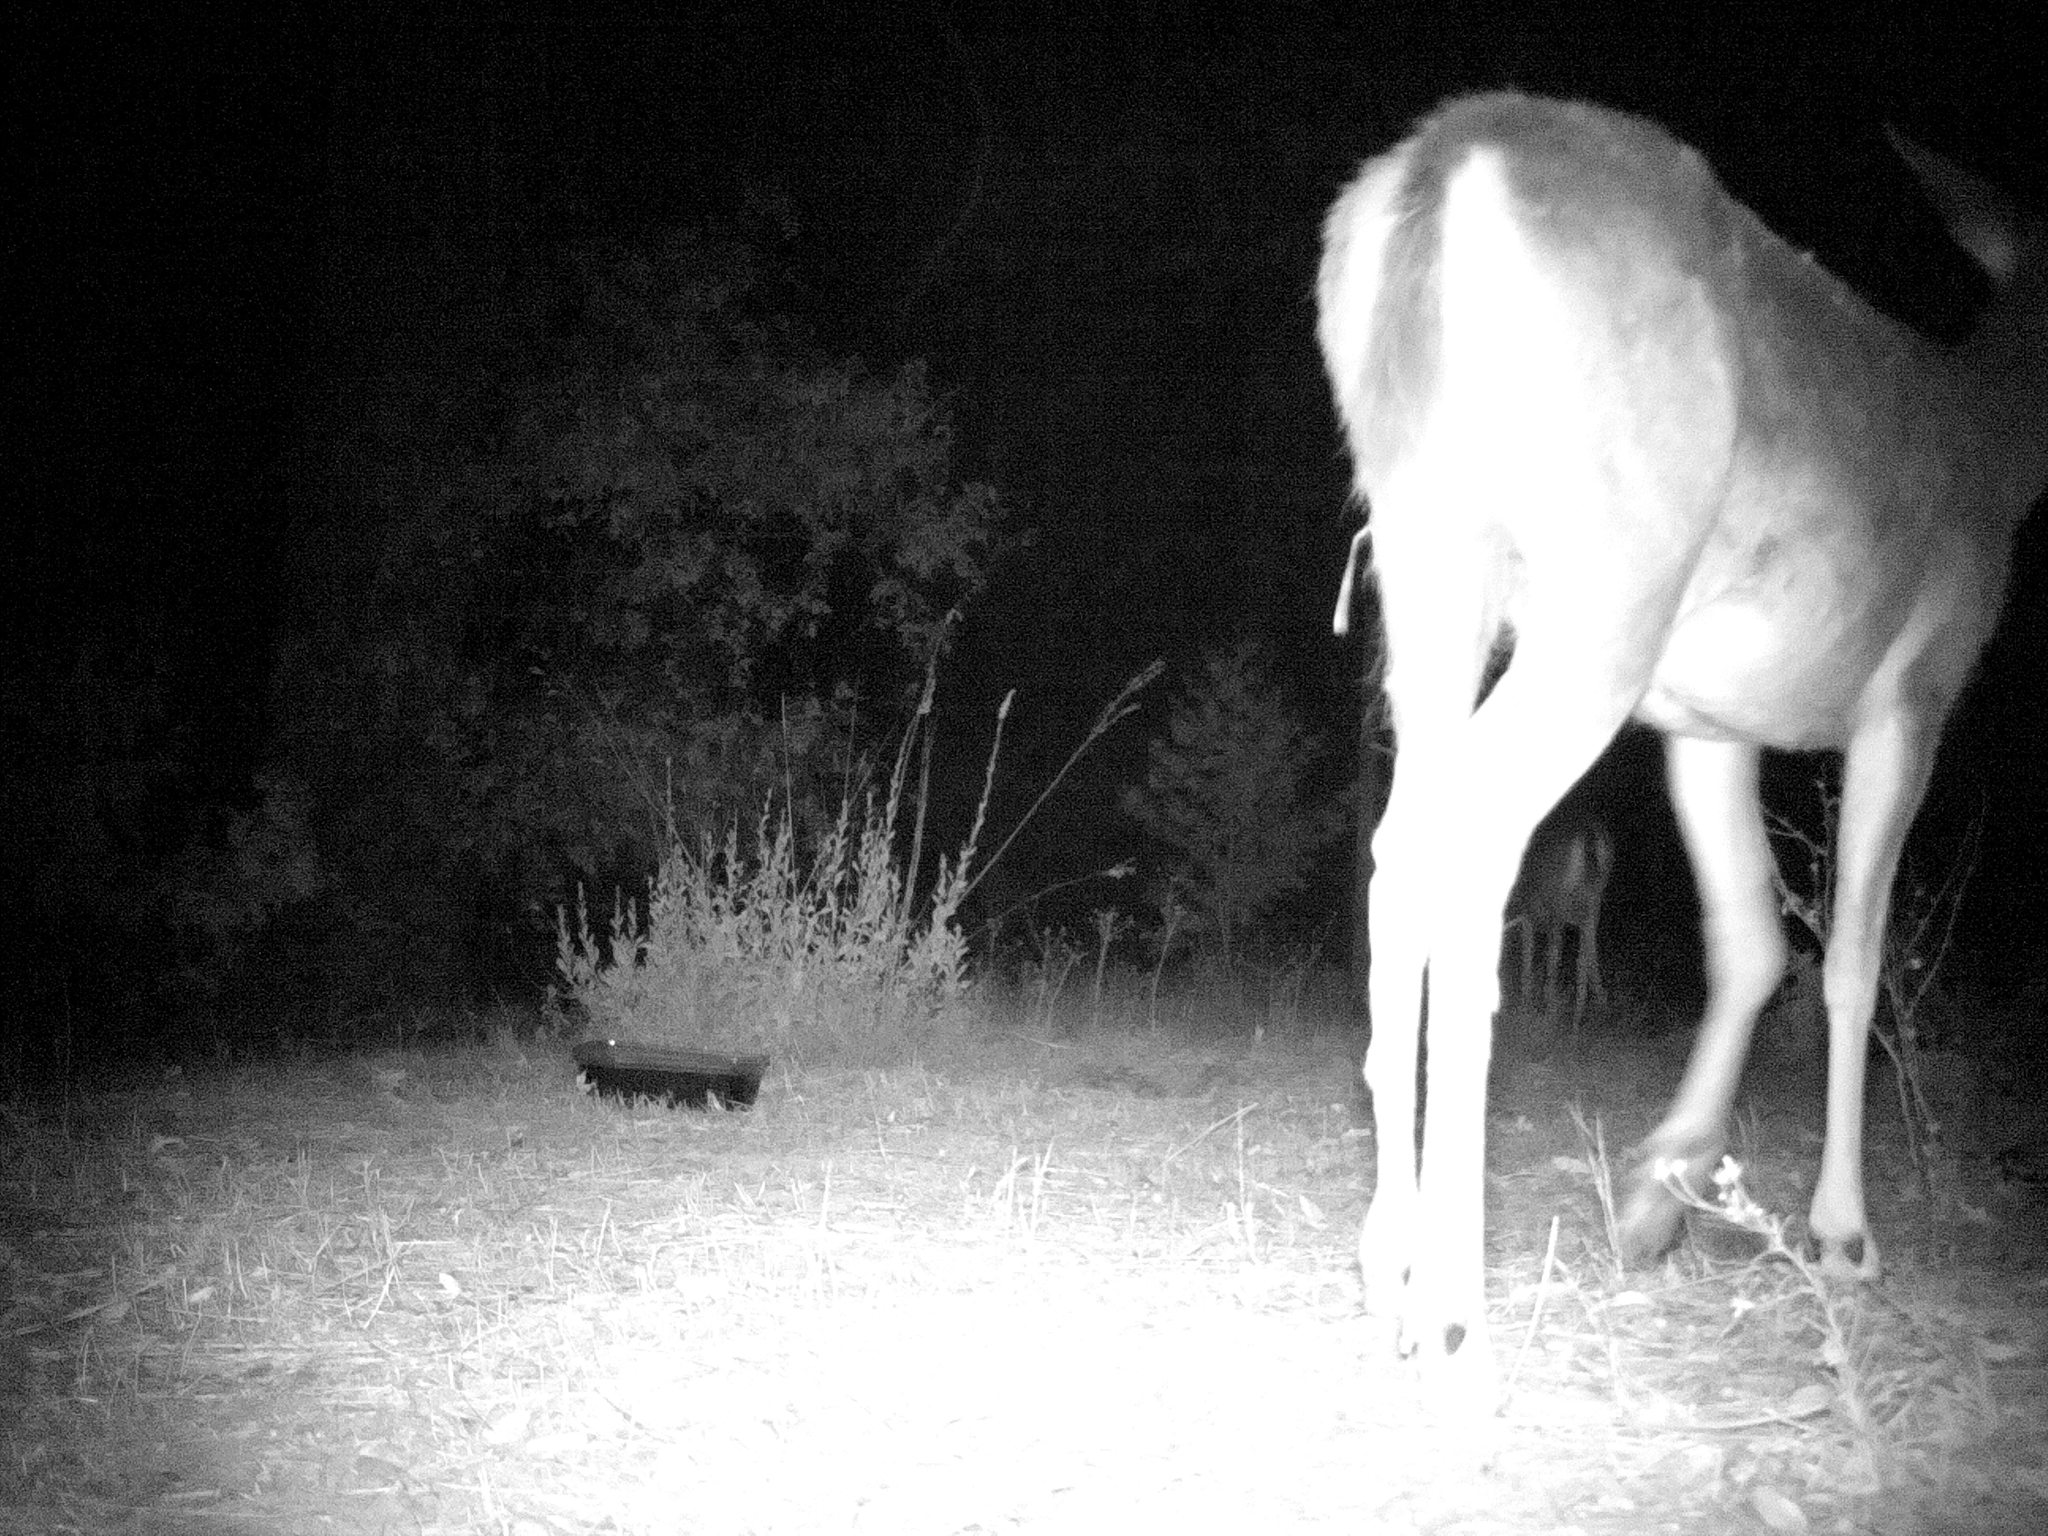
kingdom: Animalia
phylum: Chordata
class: Mammalia
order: Artiodactyla
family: Cervidae
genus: Odocoileus
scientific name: Odocoileus hemionus
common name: Mule deer
